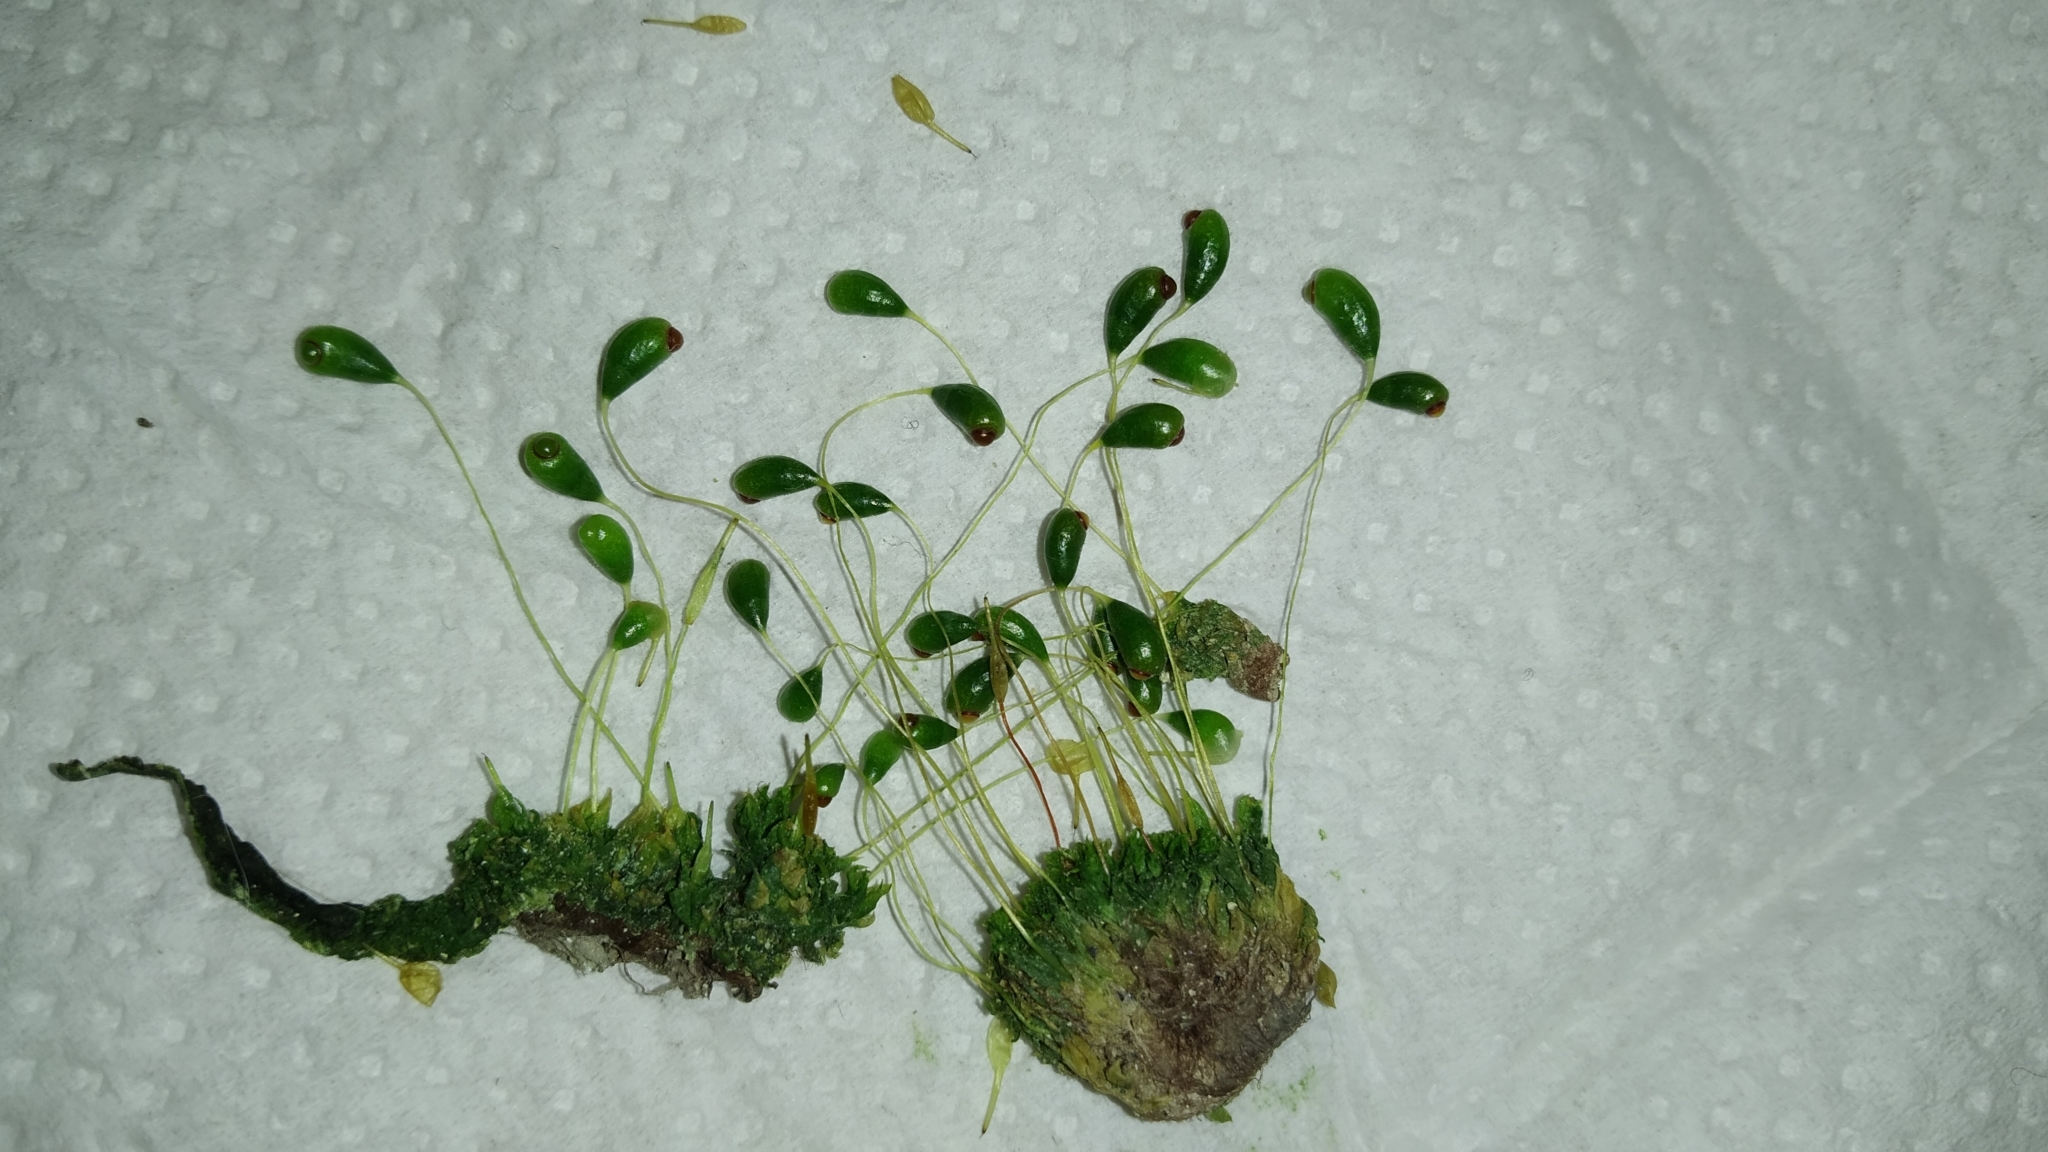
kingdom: Plantae
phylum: Bryophyta
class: Bryopsida
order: Funariales
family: Funariaceae
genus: Funaria
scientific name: Funaria hygrometrica
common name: Common cord moss
